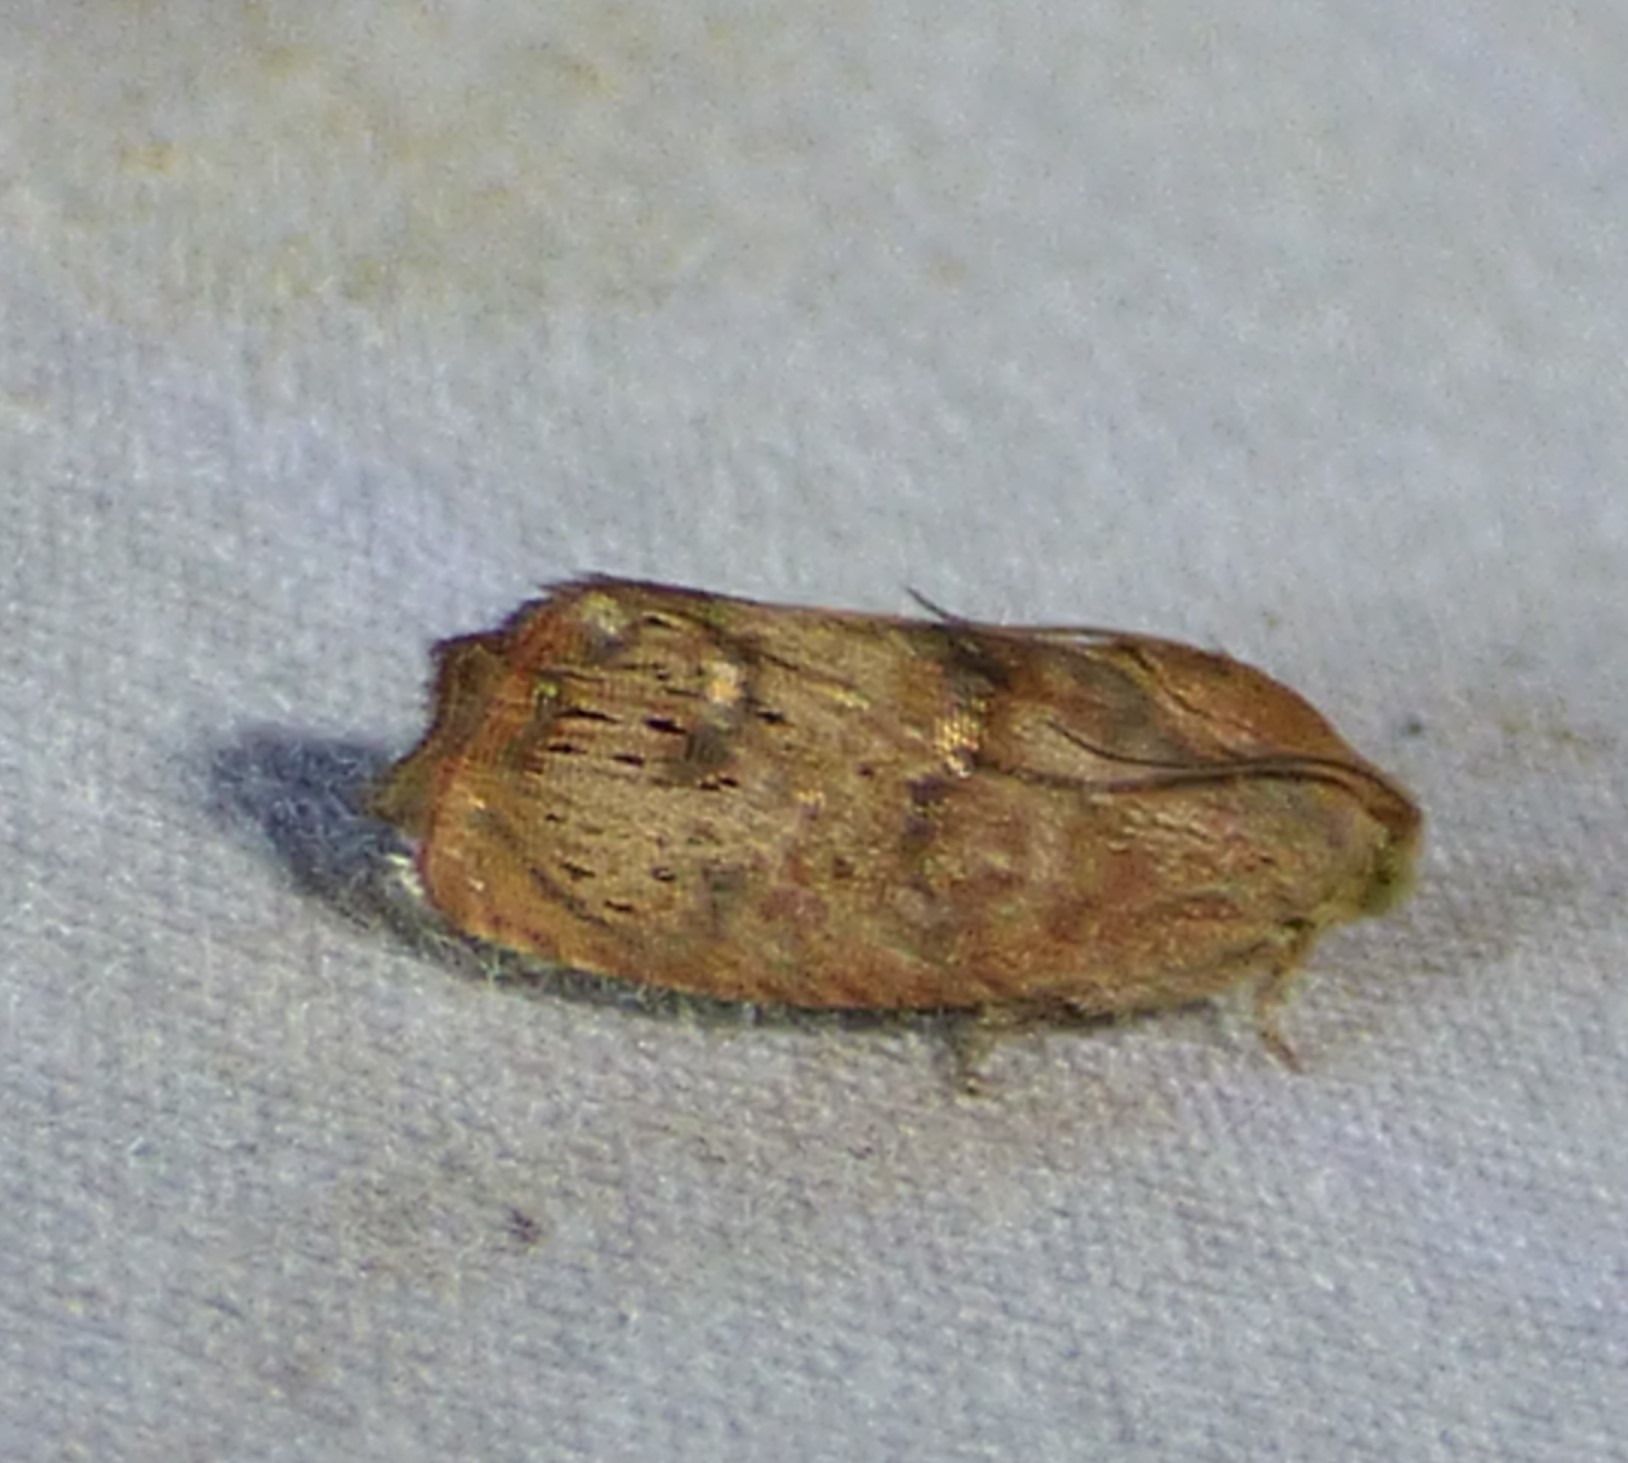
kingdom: Animalia
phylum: Arthropoda
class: Insecta
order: Lepidoptera
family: Tortricidae
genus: Cydia
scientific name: Cydia latiferreana
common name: Filbertworm moth
